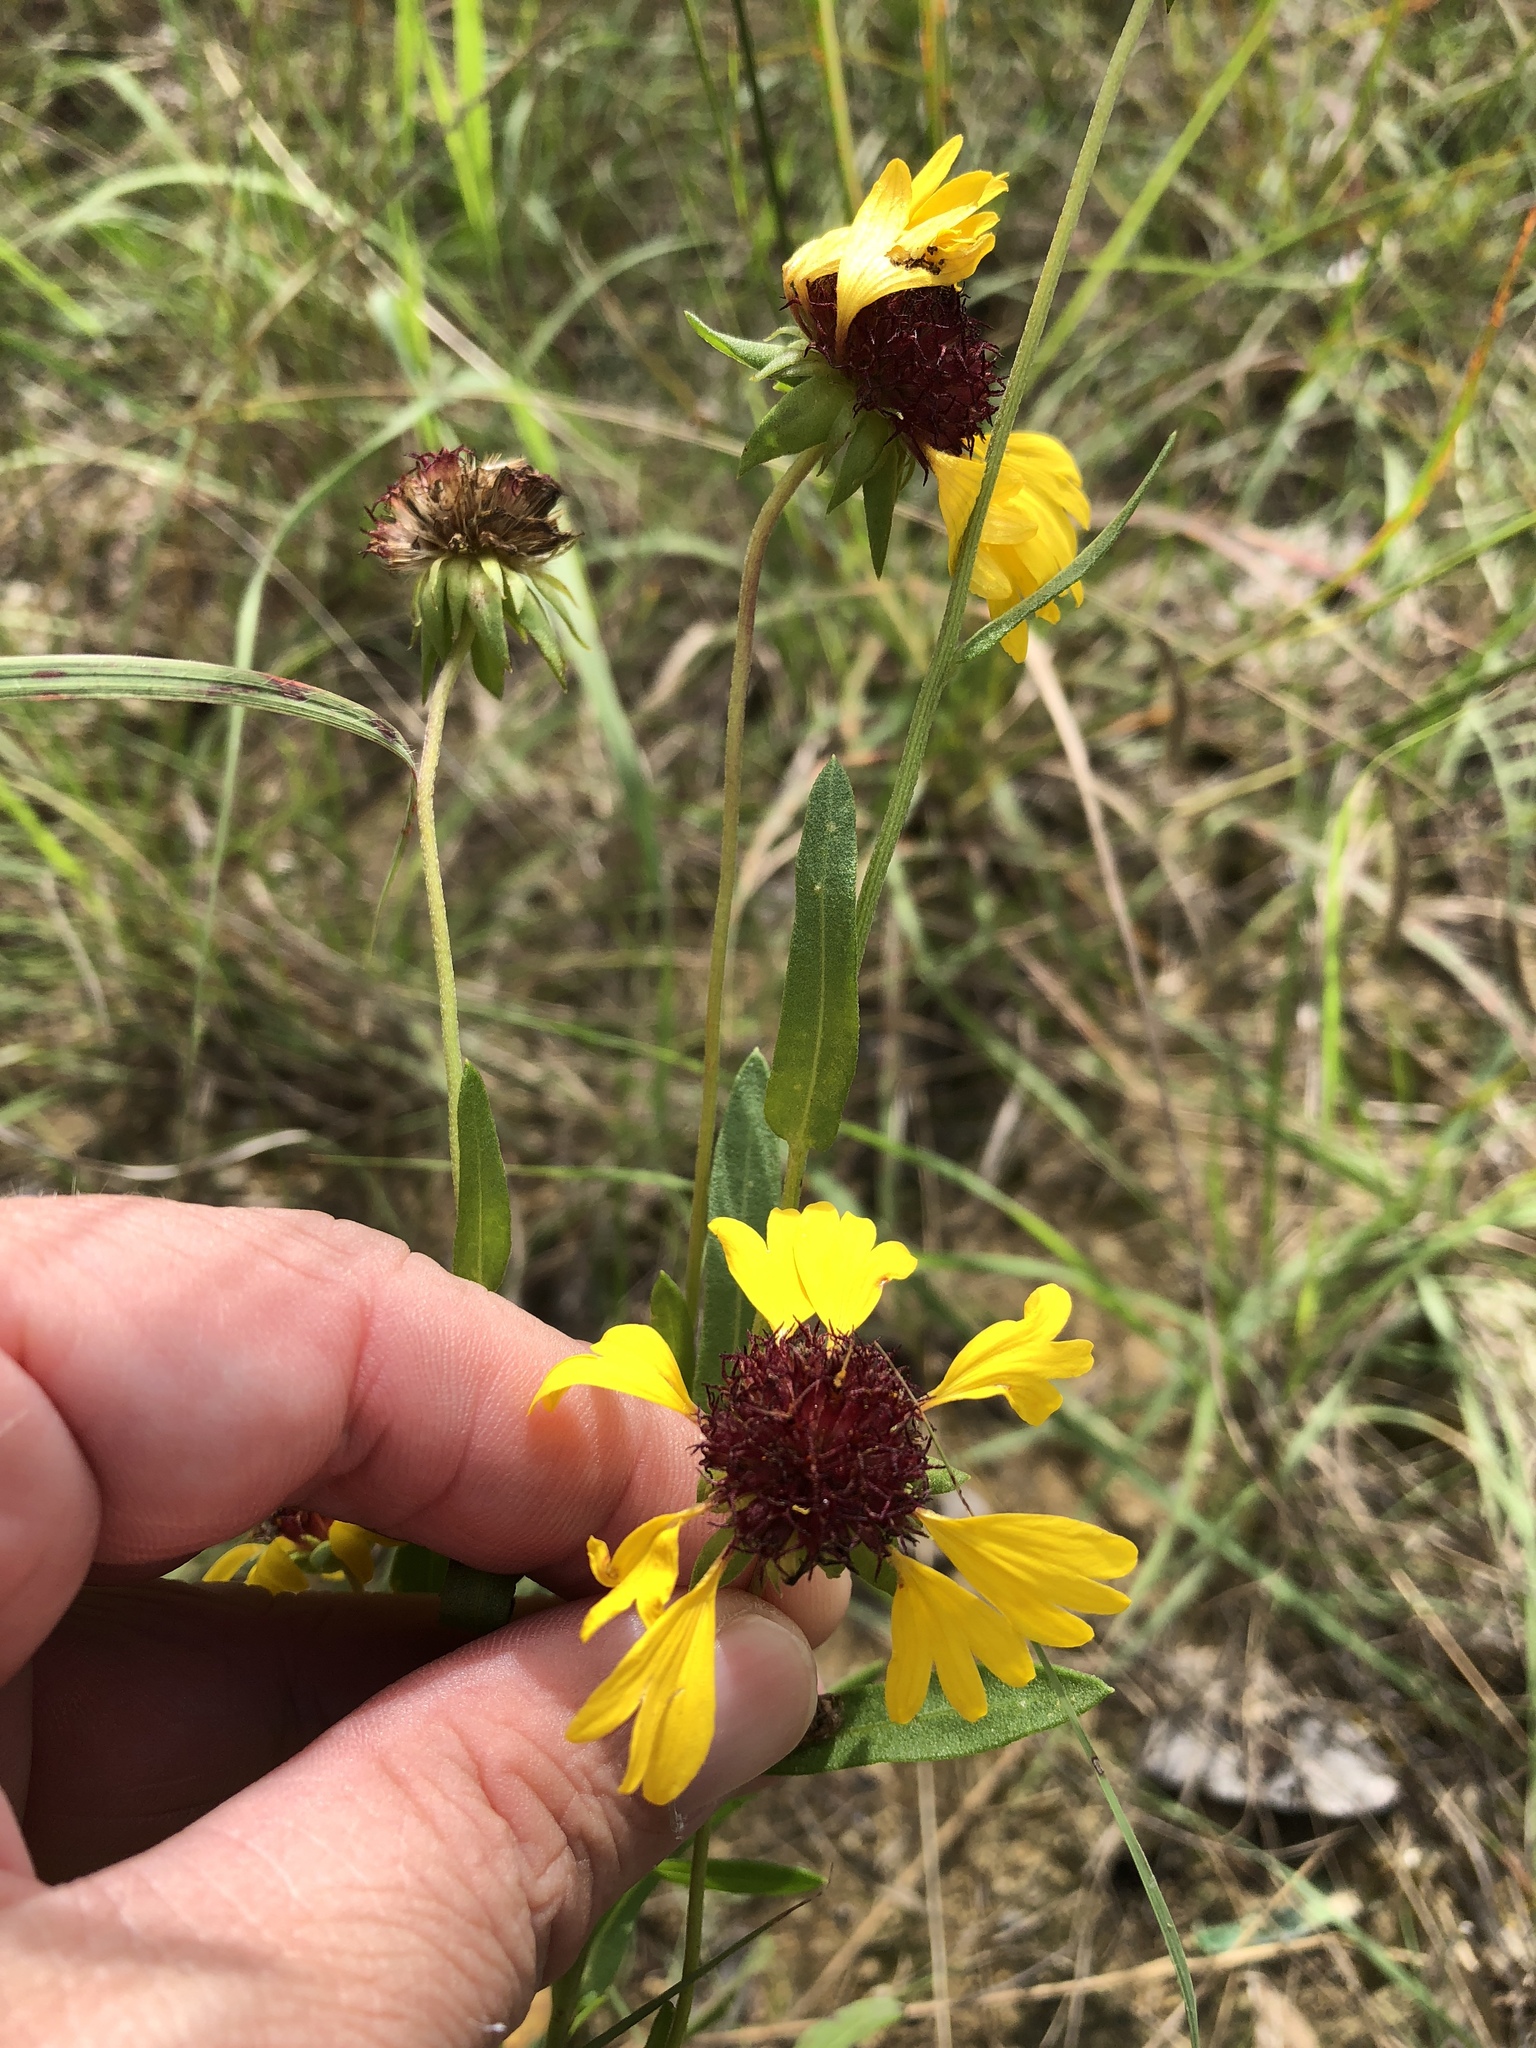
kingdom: Plantae
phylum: Tracheophyta
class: Magnoliopsida
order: Asterales
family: Asteraceae
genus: Gaillardia
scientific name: Gaillardia aestivalis
